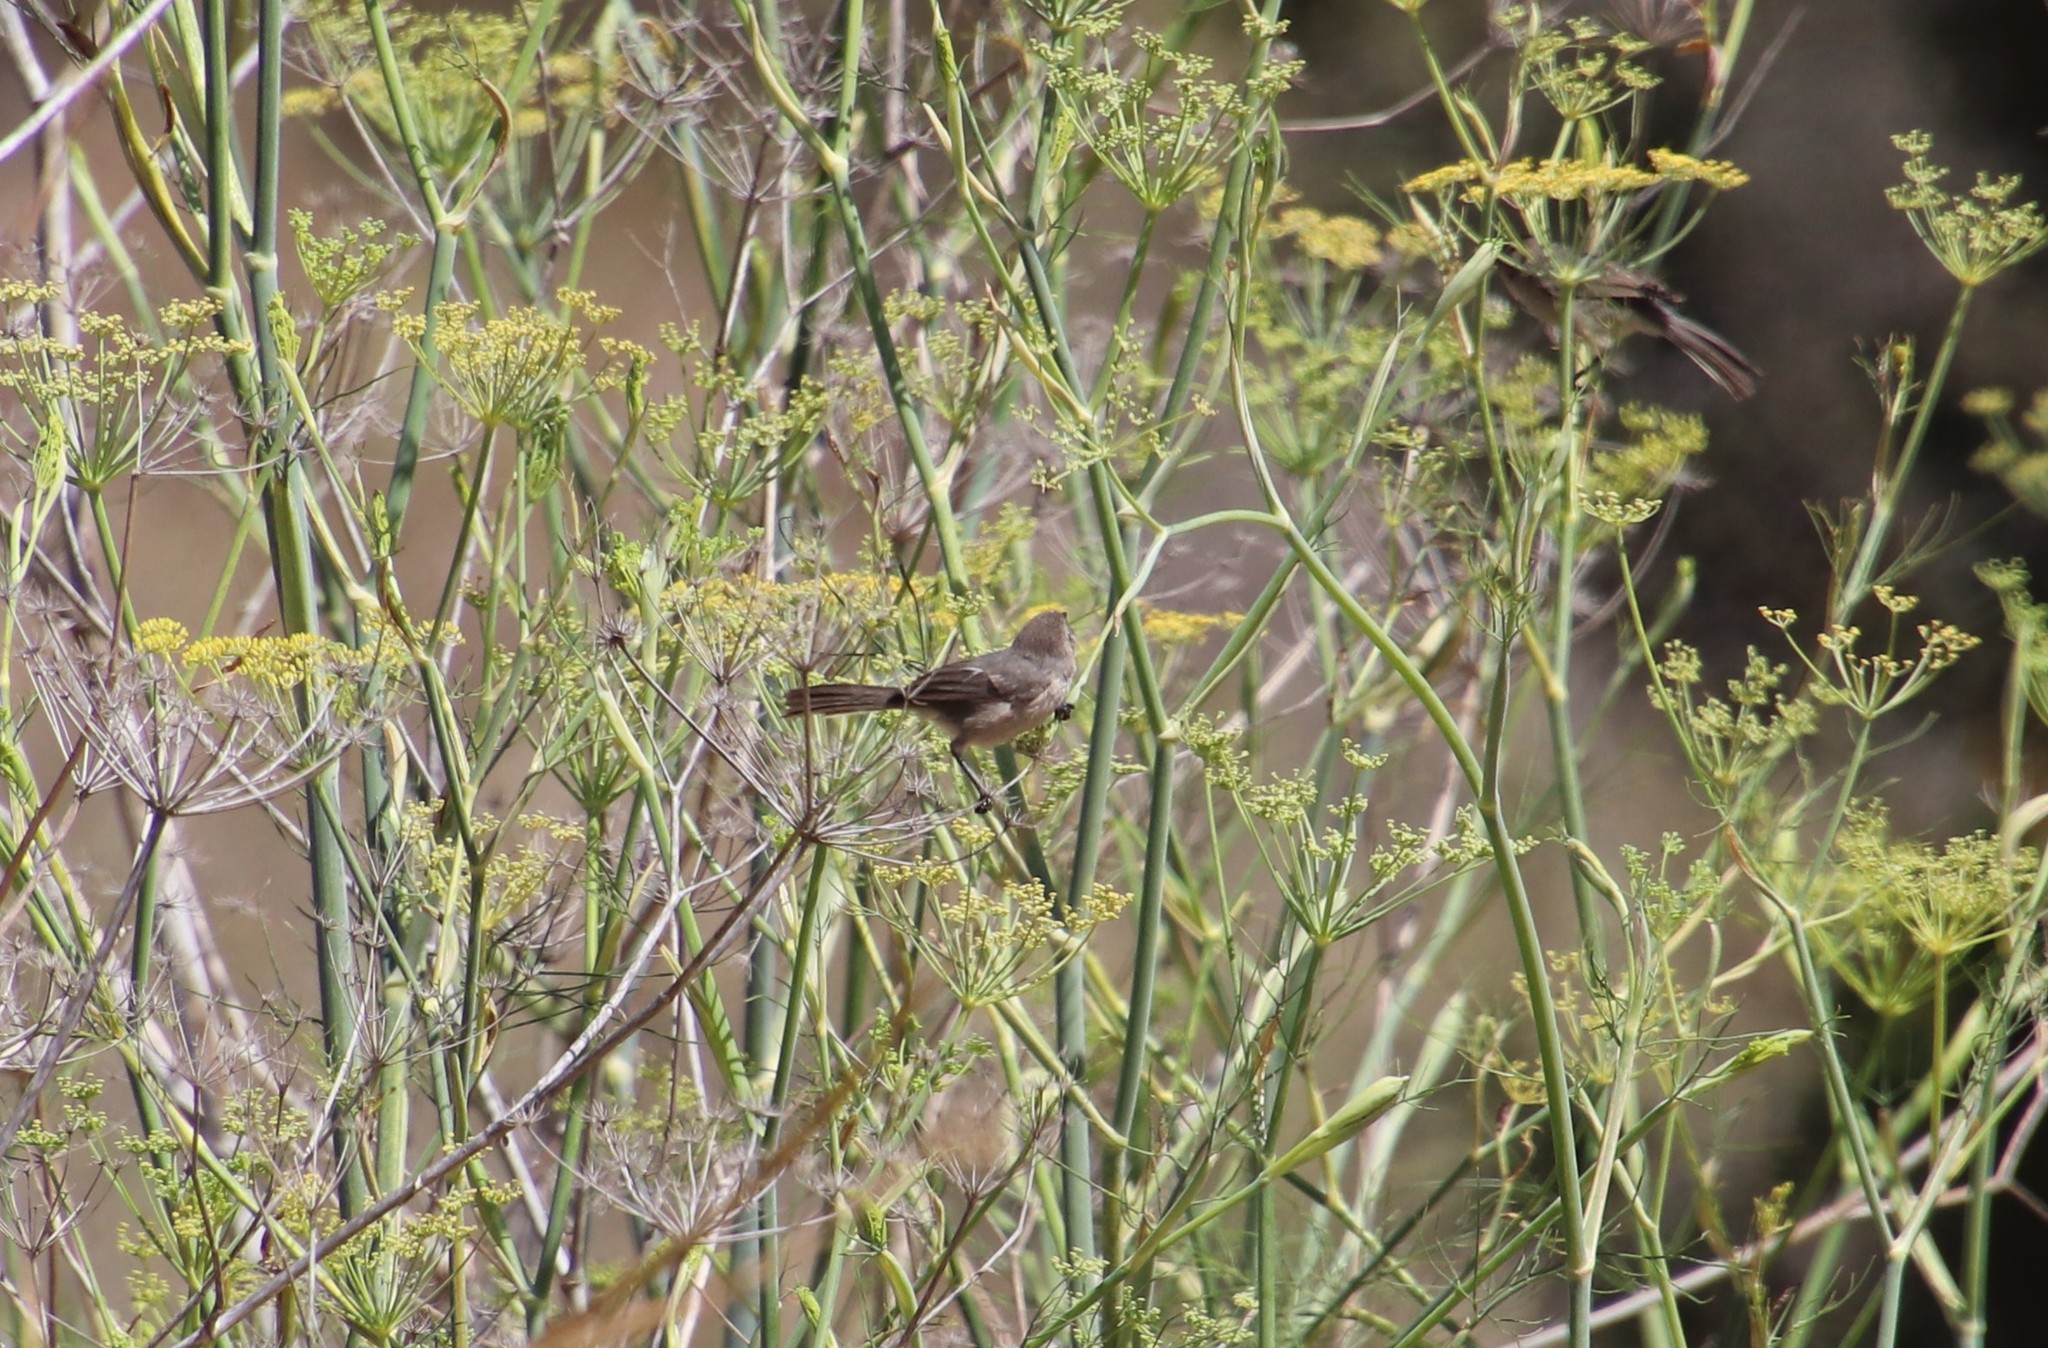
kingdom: Animalia
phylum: Chordata
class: Aves
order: Passeriformes
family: Aegithalidae
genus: Psaltriparus
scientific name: Psaltriparus minimus
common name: American bushtit
